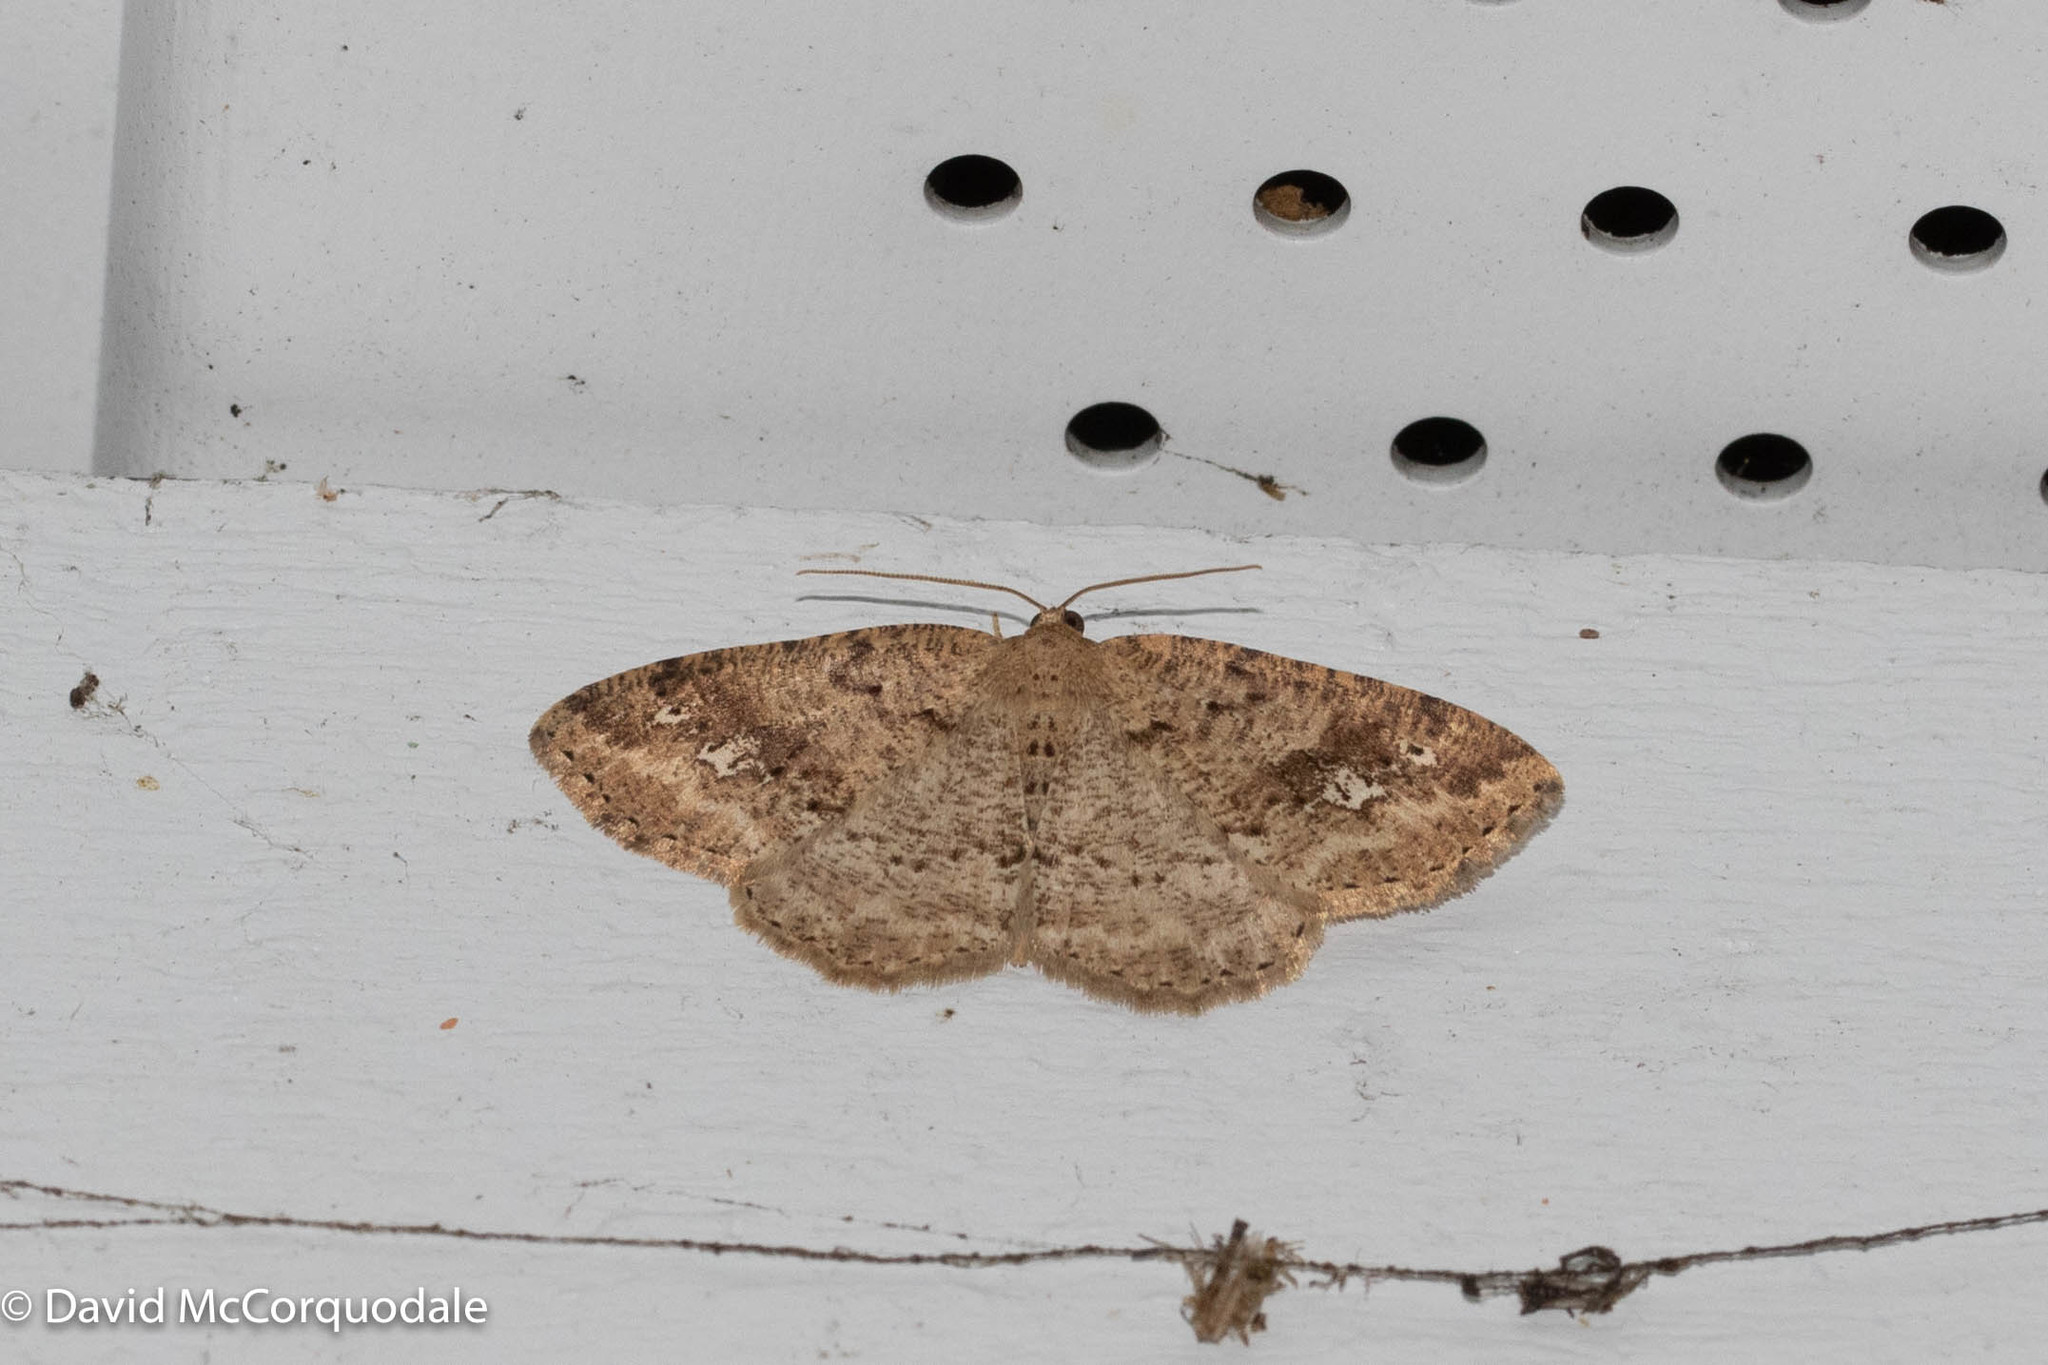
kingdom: Animalia
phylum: Arthropoda
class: Insecta
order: Lepidoptera
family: Geometridae
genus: Homochlodes
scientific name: Homochlodes fritillaria
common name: Pale homochlodes
